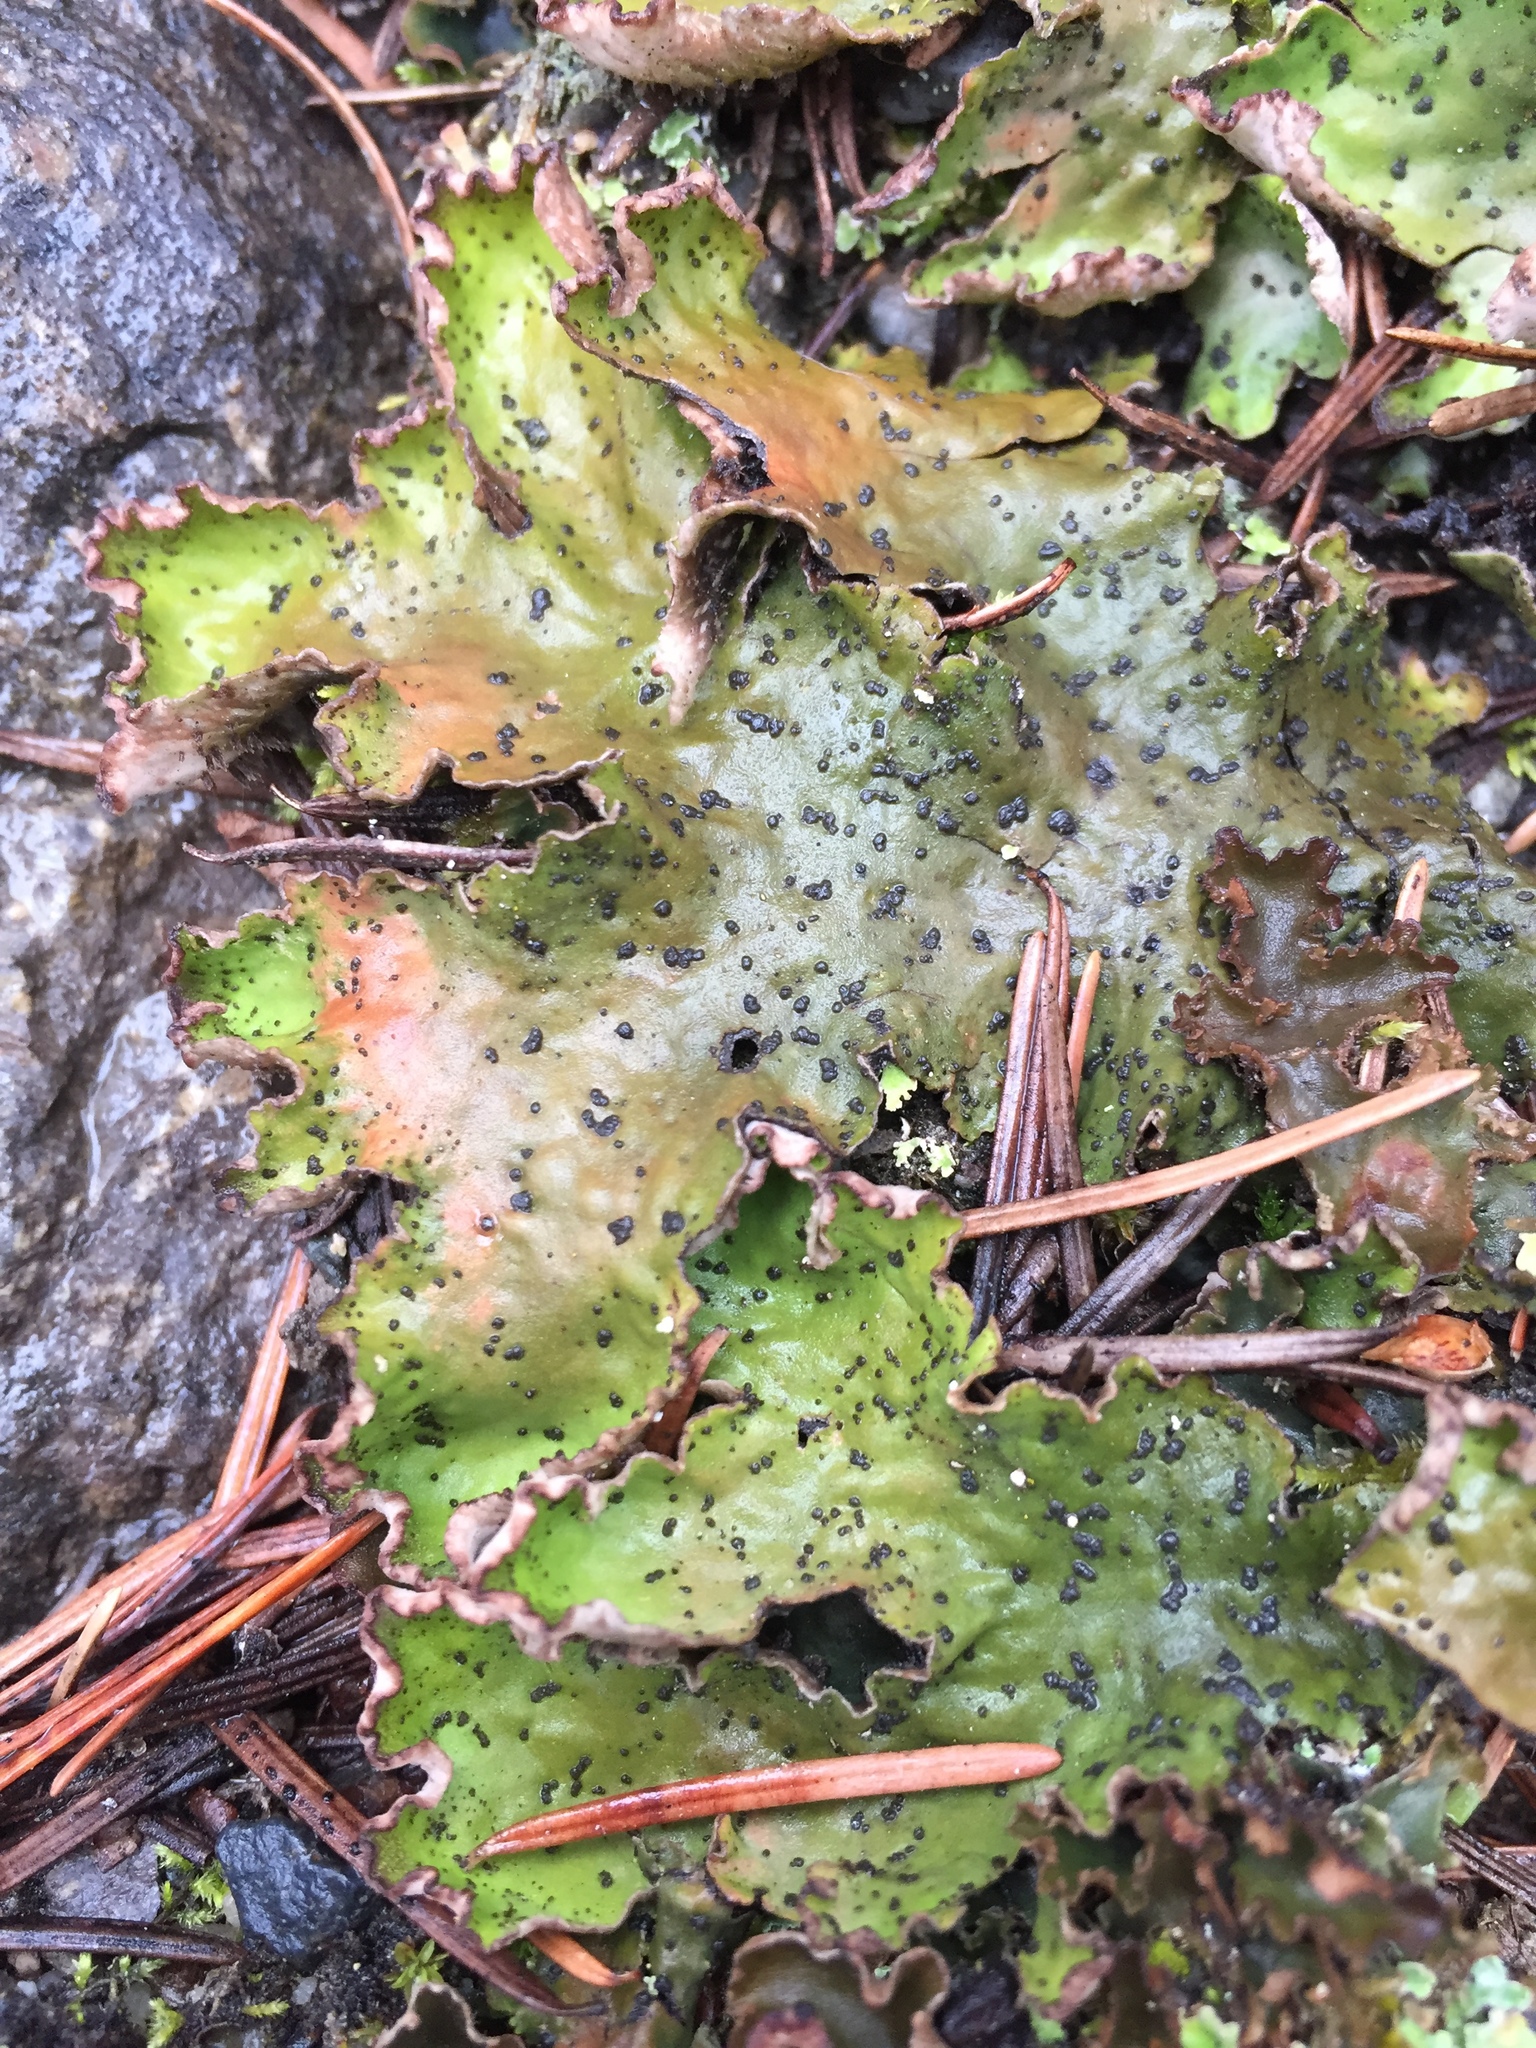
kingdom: Fungi
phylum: Ascomycota
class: Lecanoromycetes
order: Peltigerales
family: Peltigeraceae
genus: Peltigera
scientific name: Peltigera aphthosa
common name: Common freckle pelt lichen
